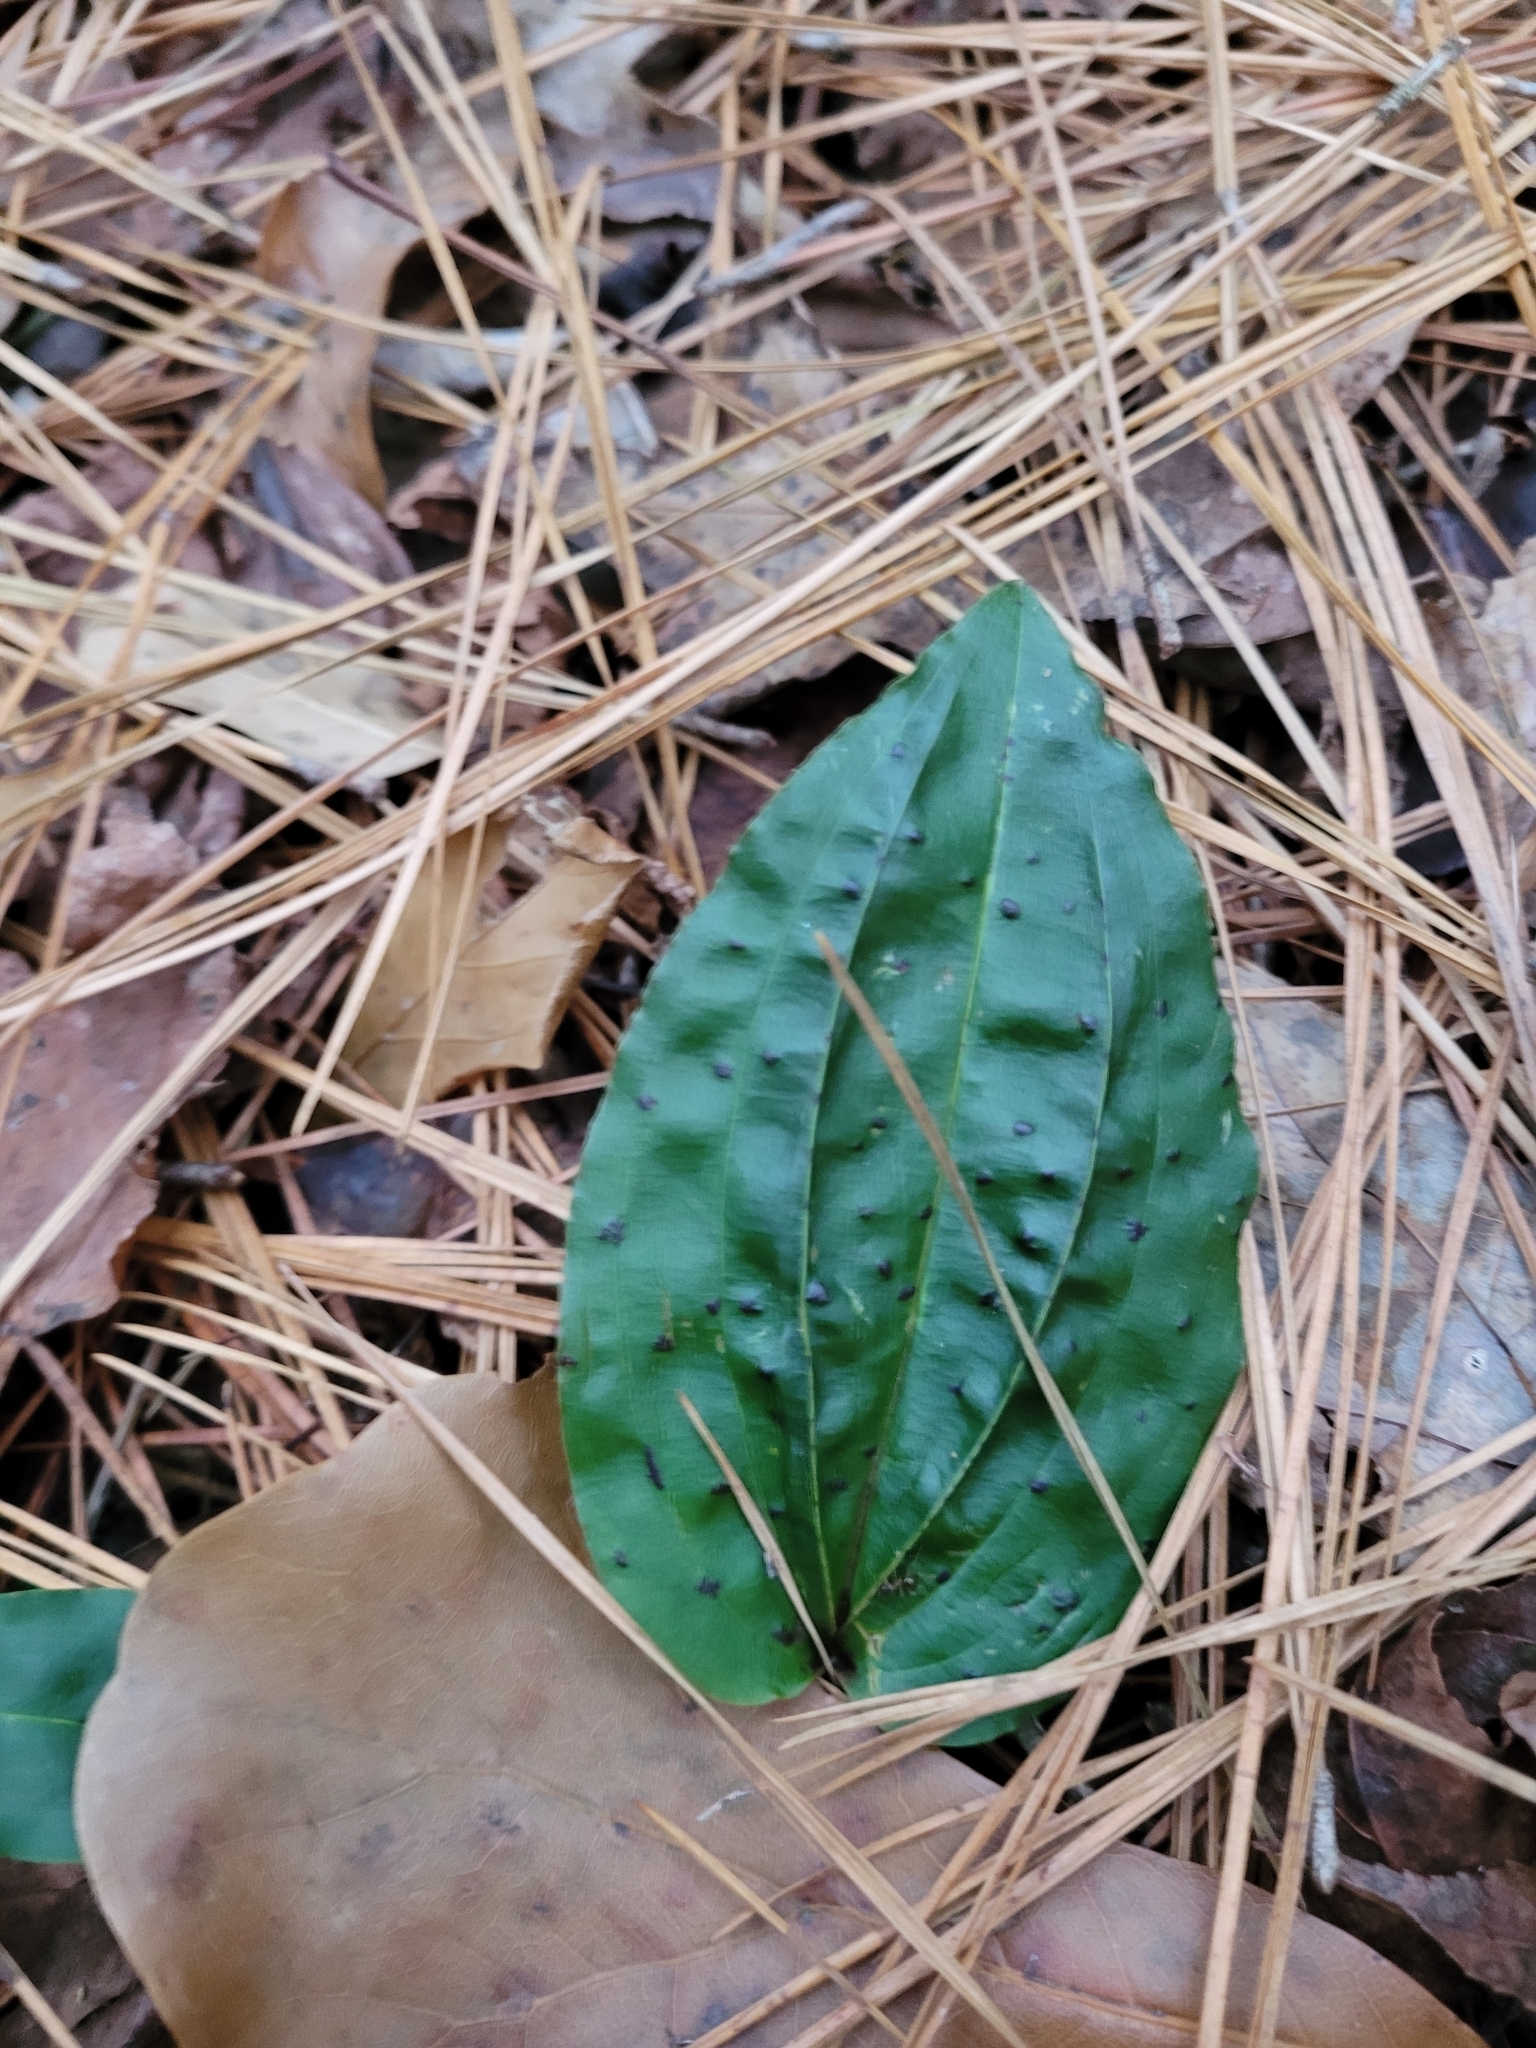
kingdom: Plantae
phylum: Tracheophyta
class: Liliopsida
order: Asparagales
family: Orchidaceae
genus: Tipularia
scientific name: Tipularia discolor
